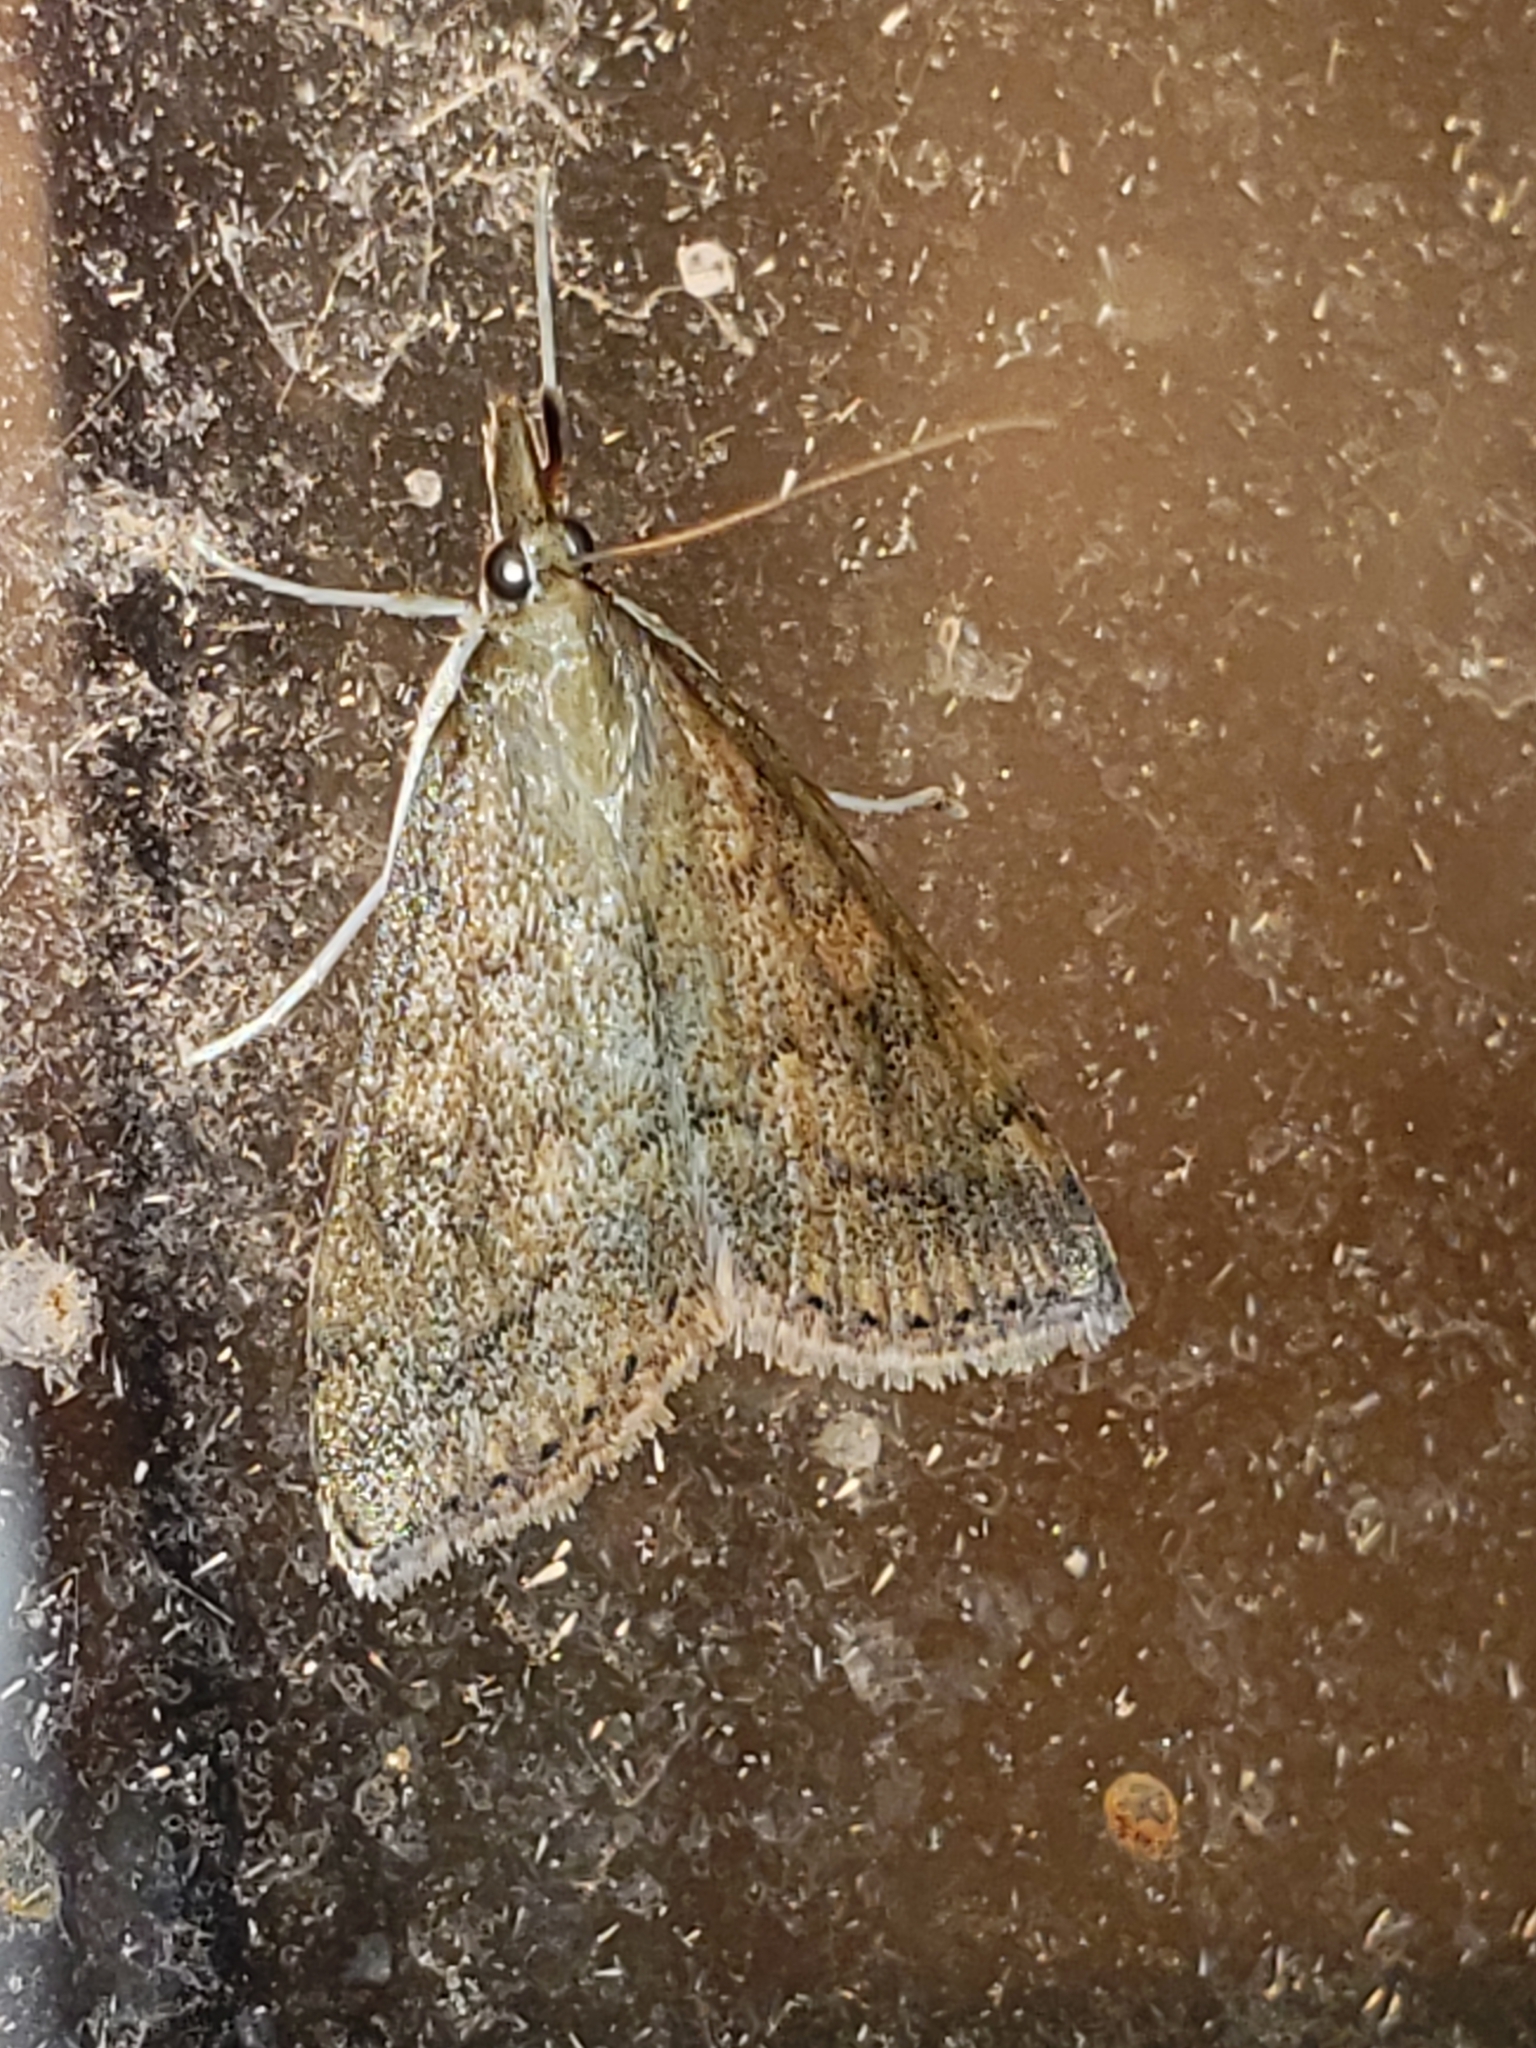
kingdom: Animalia
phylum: Arthropoda
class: Insecta
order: Lepidoptera
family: Crambidae
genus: Udea
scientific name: Udea rubigalis
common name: Celery leaftier moth
